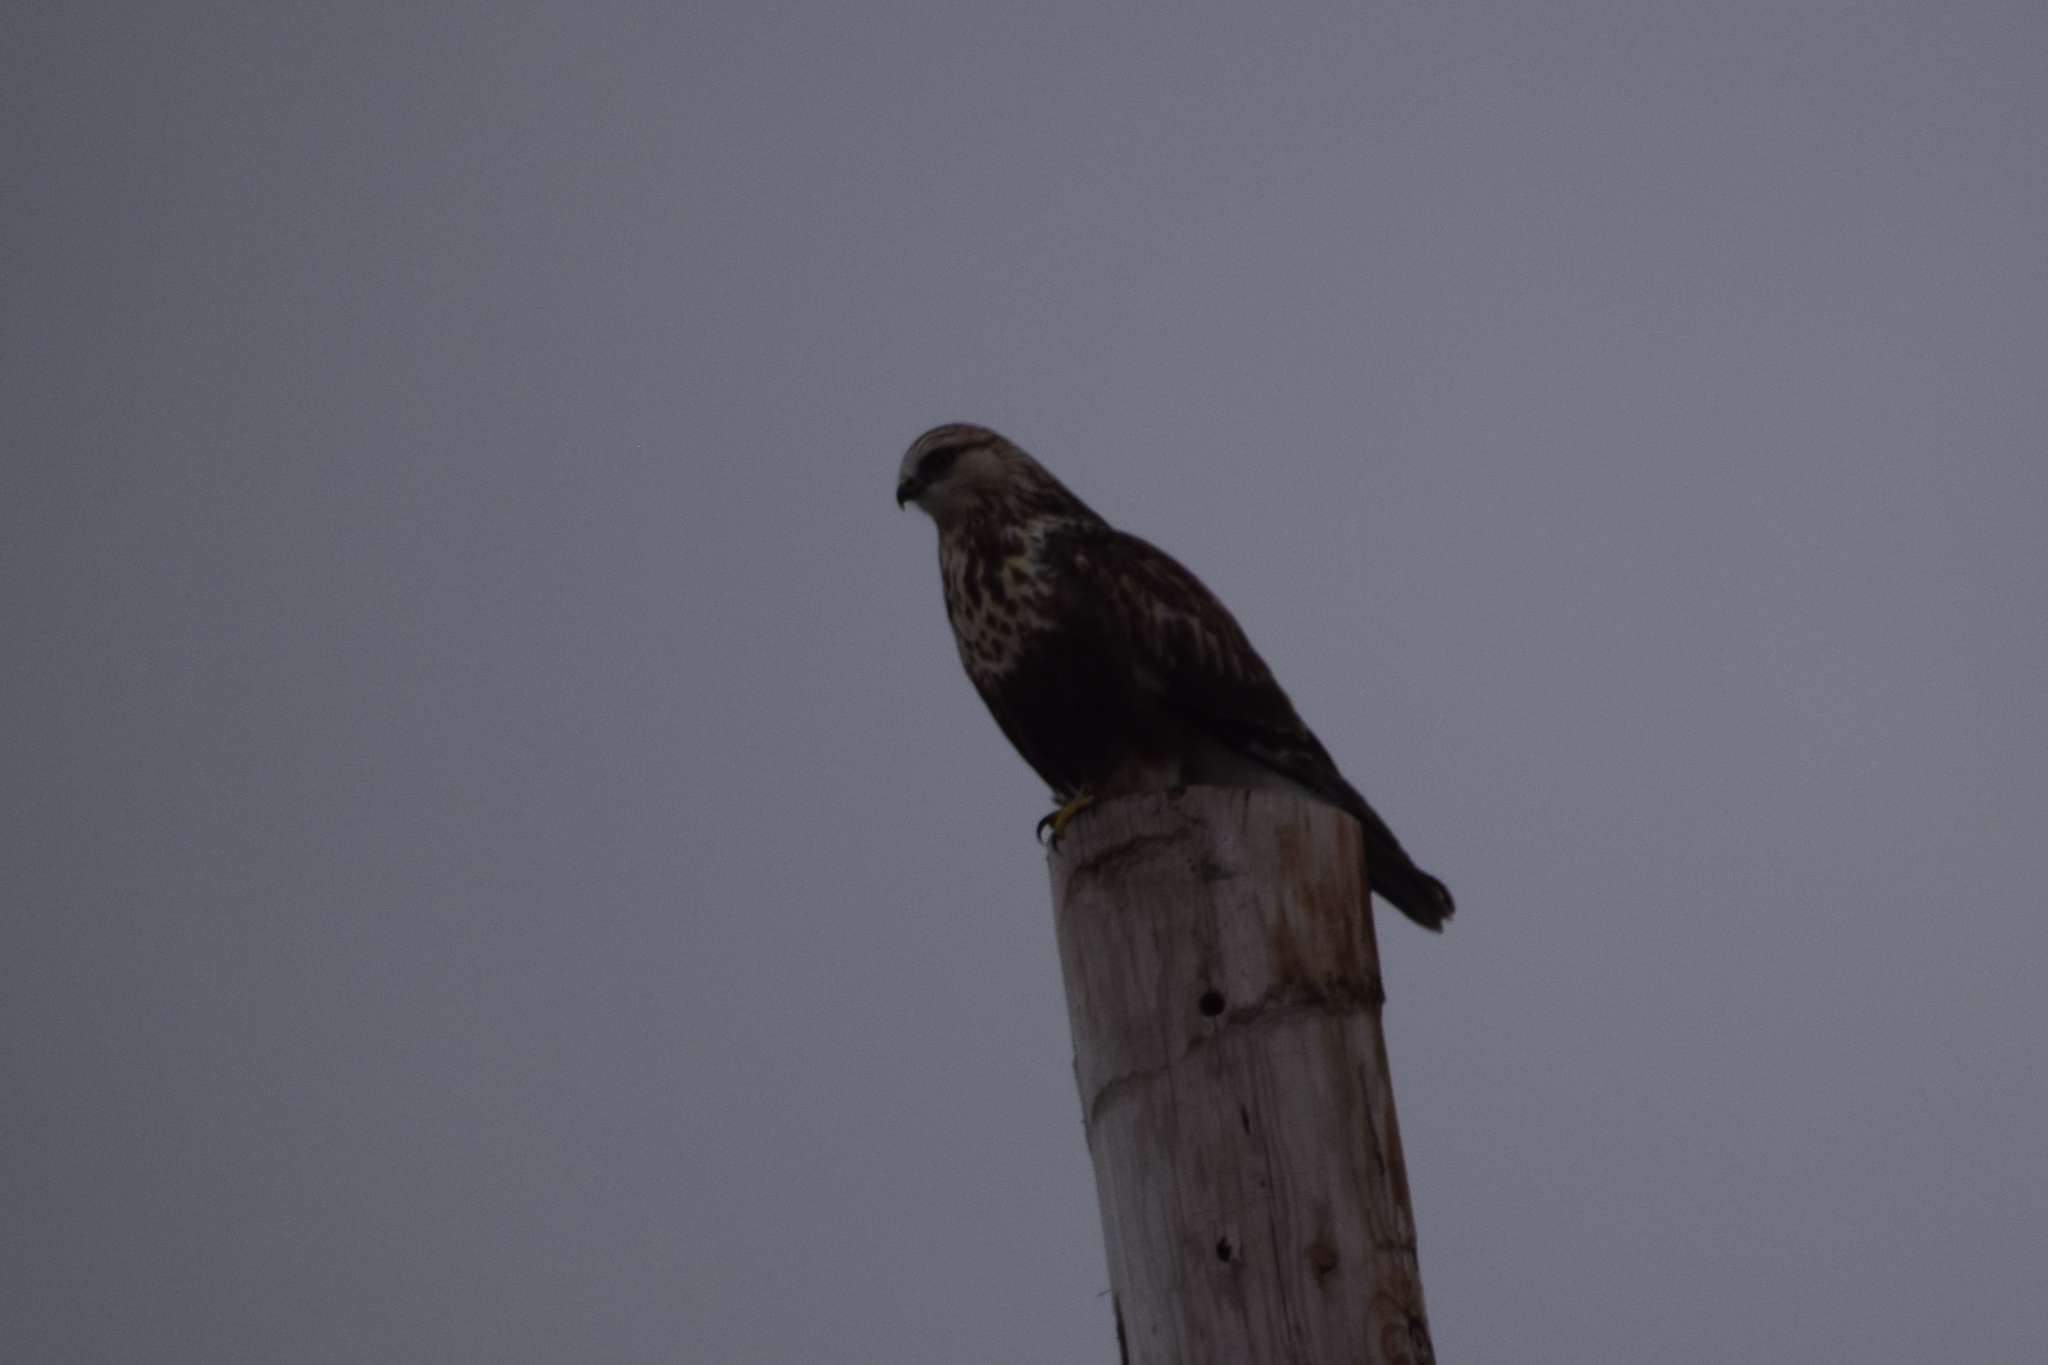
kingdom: Animalia
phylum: Chordata
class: Aves
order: Accipitriformes
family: Accipitridae
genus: Buteo
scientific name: Buteo lagopus
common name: Rough-legged buzzard
